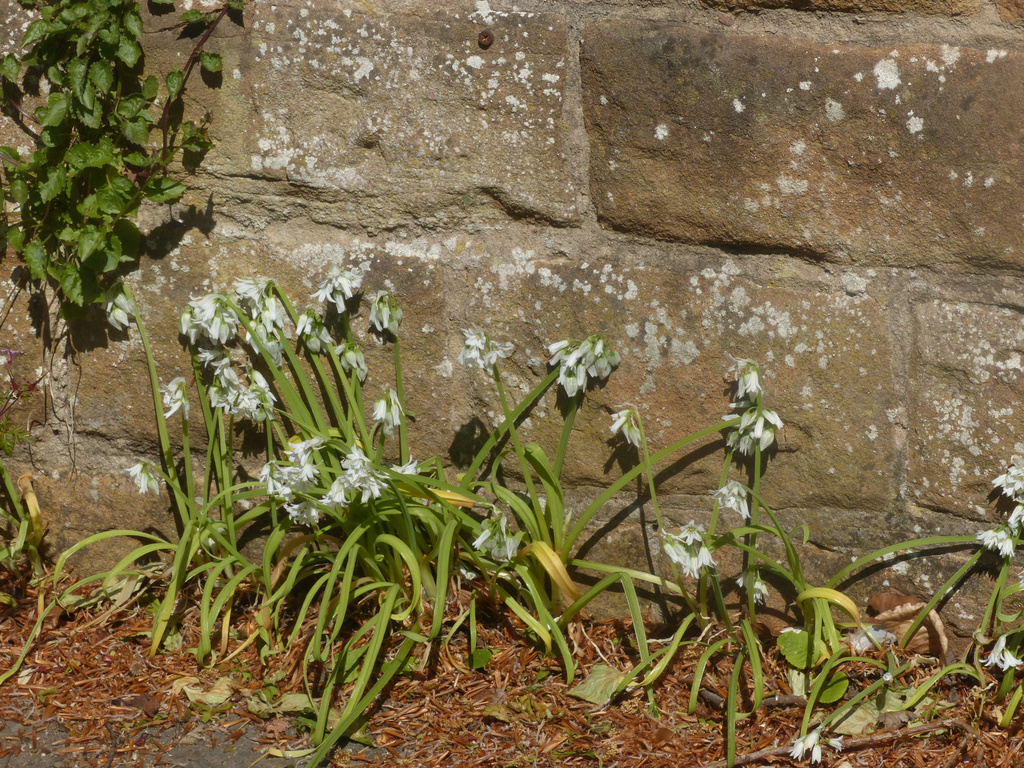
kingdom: Plantae
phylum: Tracheophyta
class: Liliopsida
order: Asparagales
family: Amaryllidaceae
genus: Allium
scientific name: Allium triquetrum
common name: Three-cornered garlic
